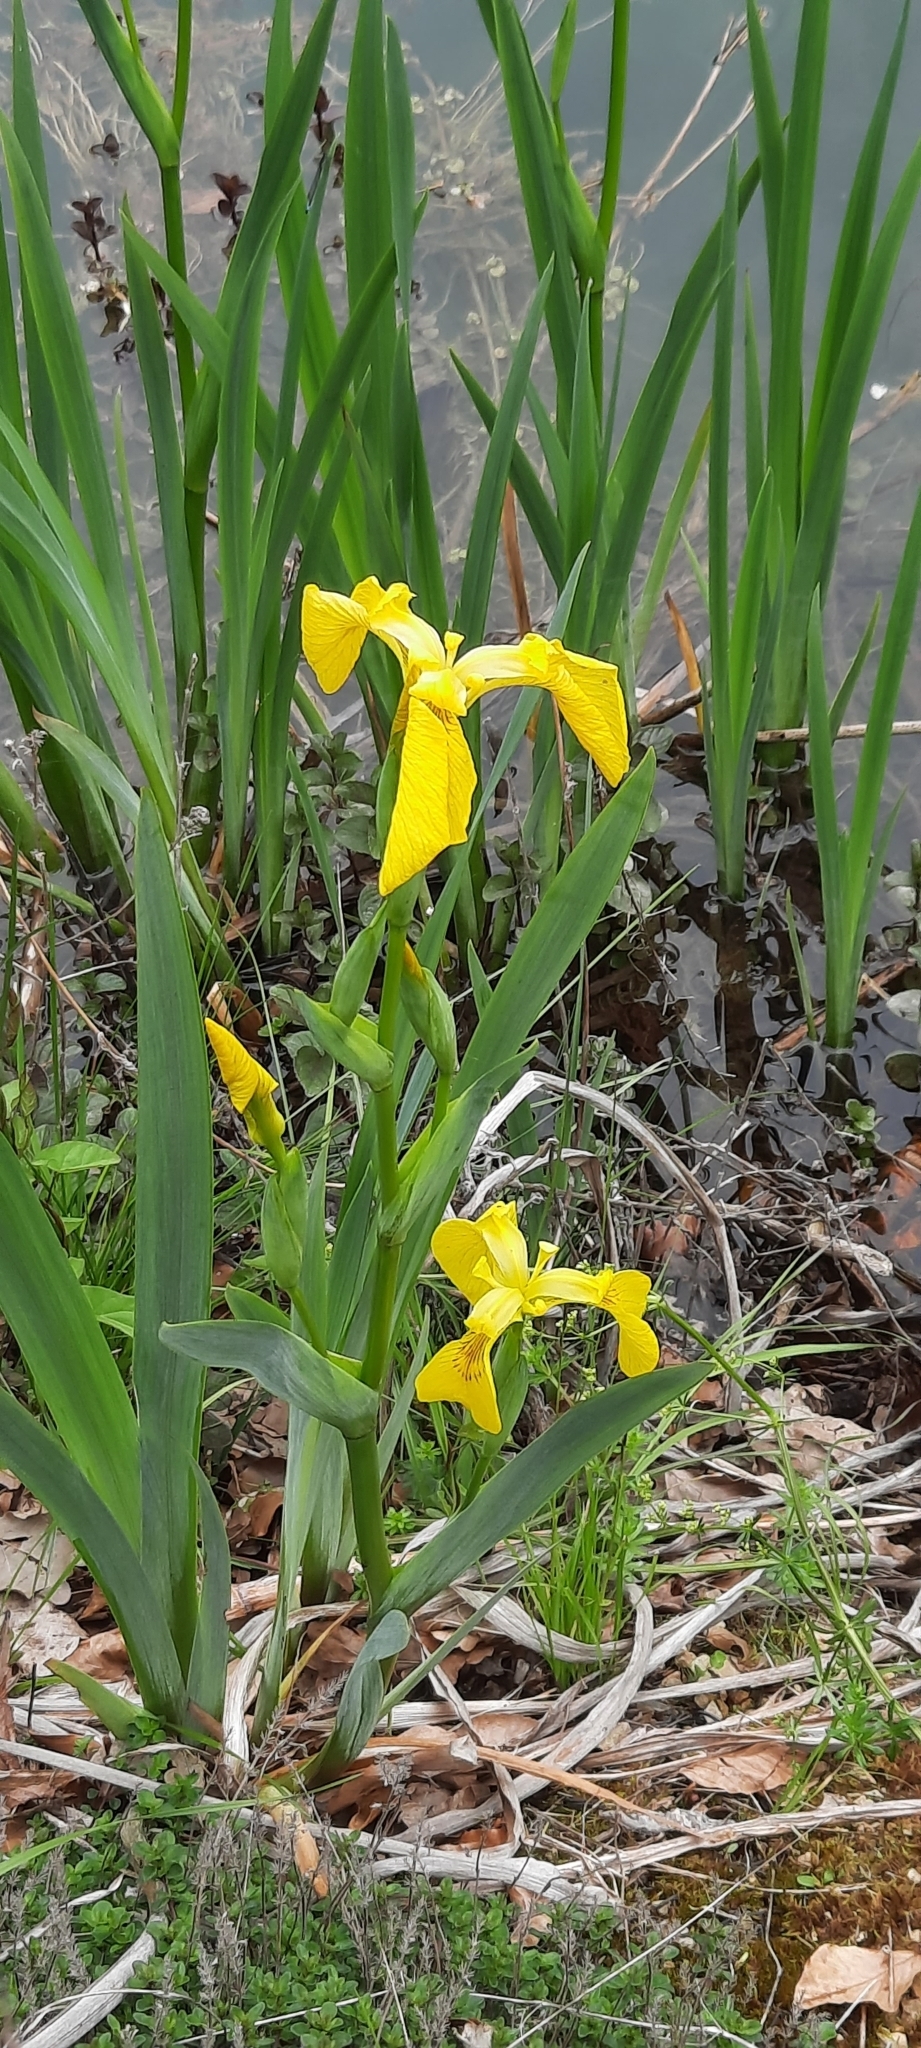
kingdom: Plantae
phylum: Tracheophyta
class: Liliopsida
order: Asparagales
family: Iridaceae
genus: Iris
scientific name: Iris pseudacorus
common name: Yellow flag
